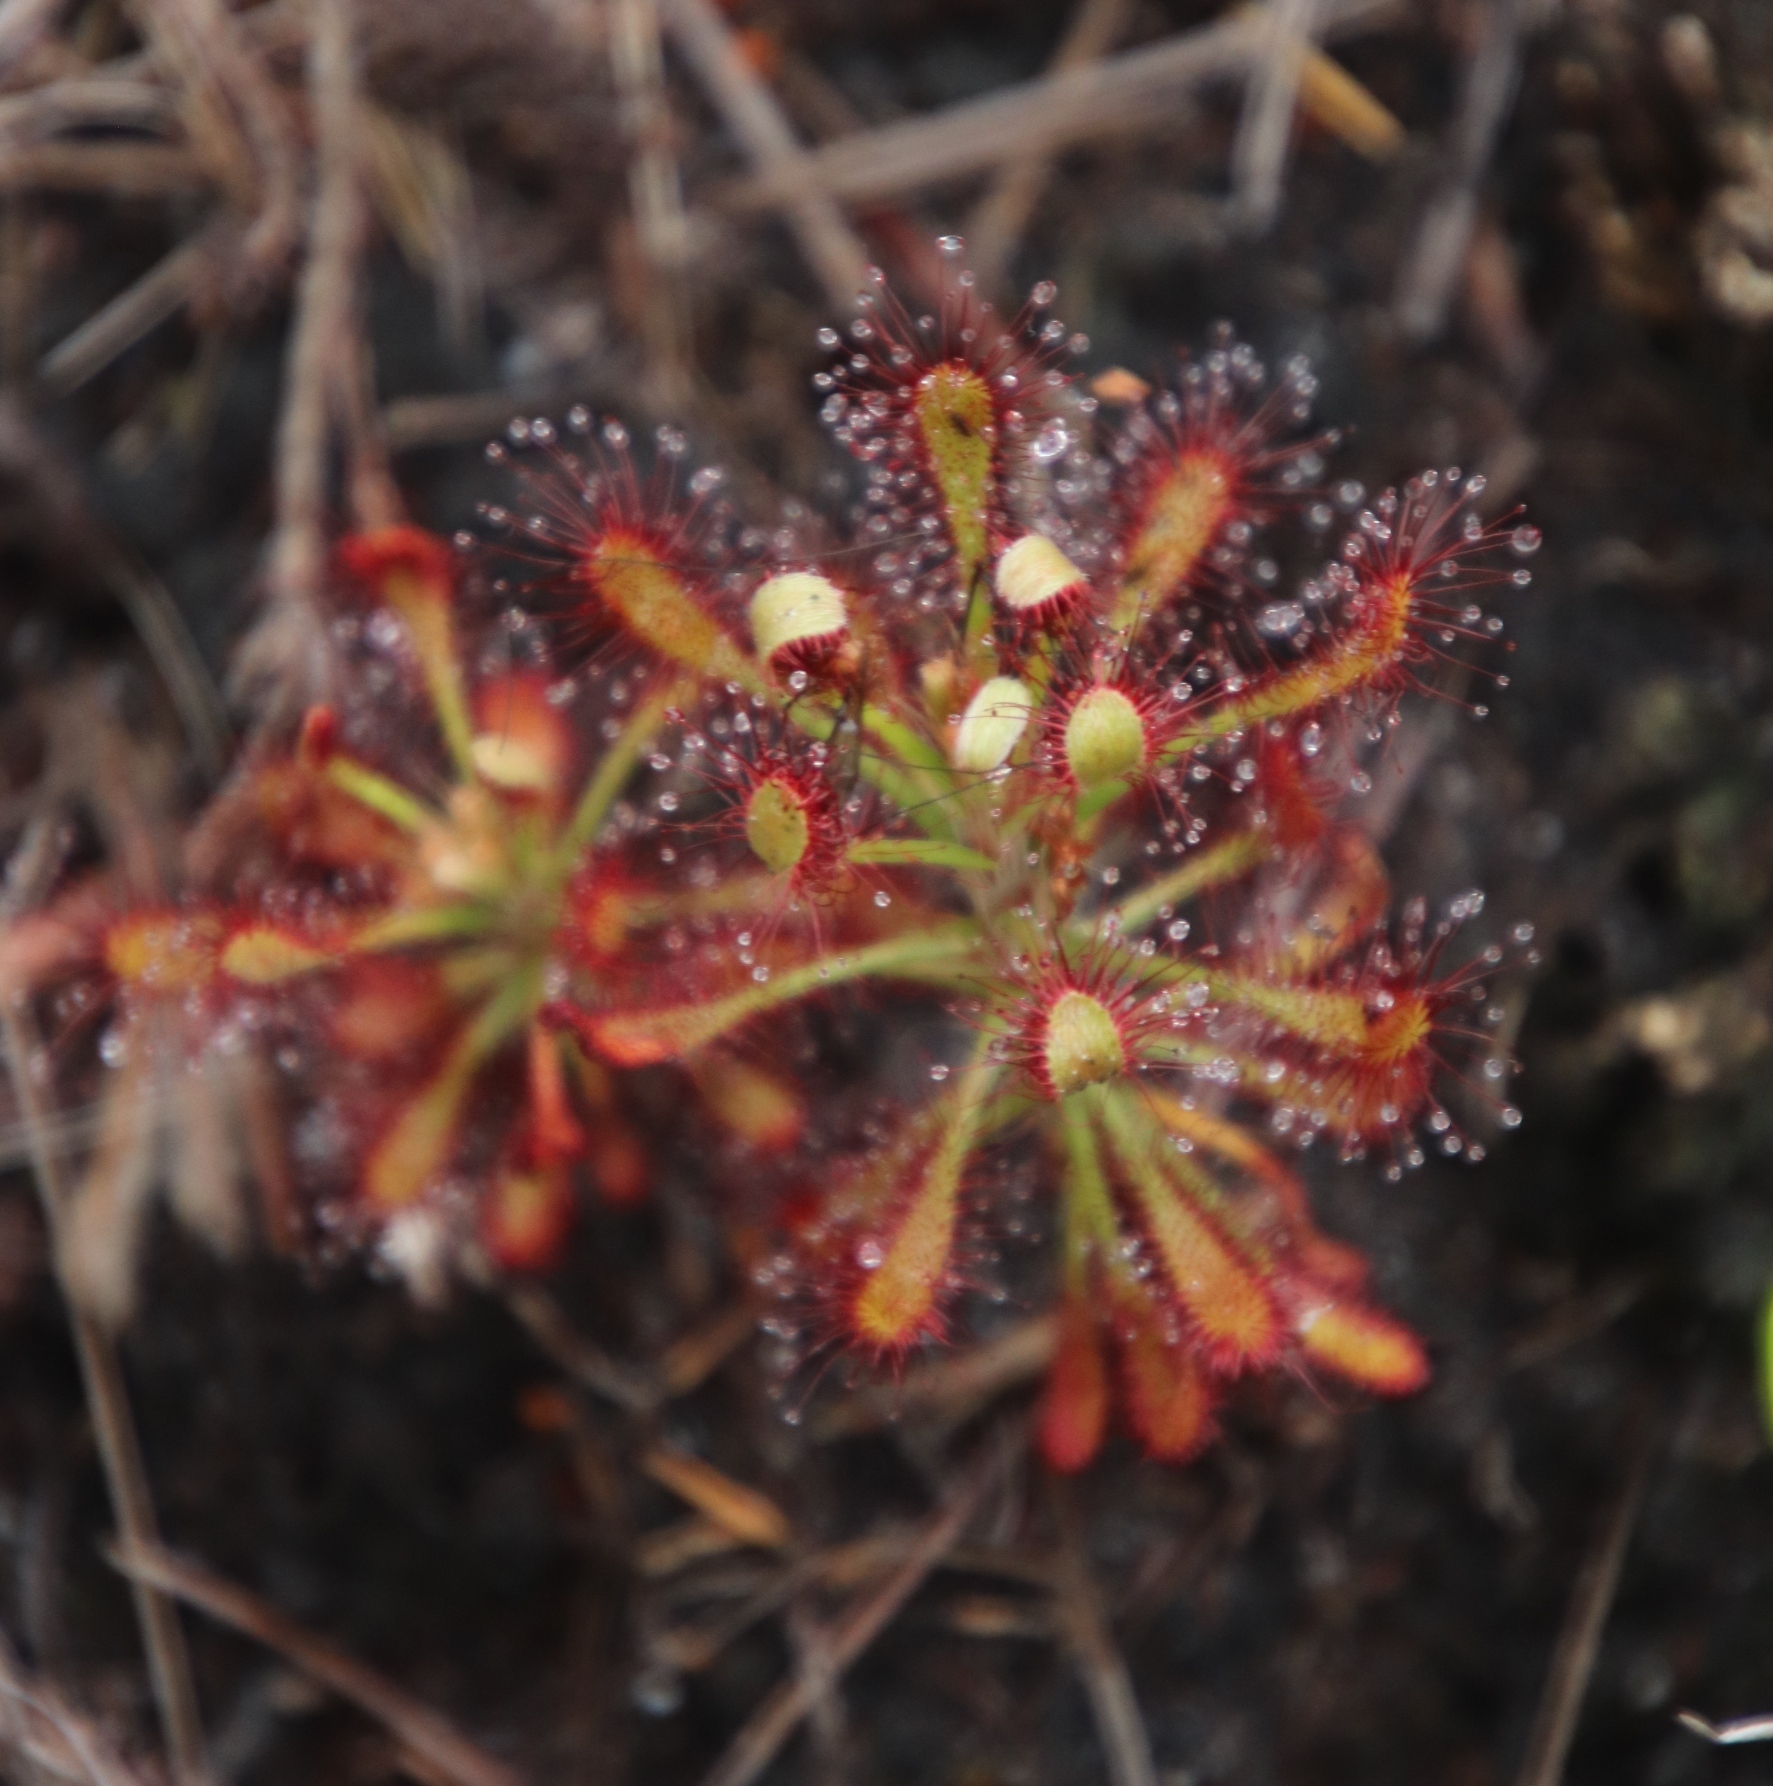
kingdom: Plantae
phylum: Tracheophyta
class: Magnoliopsida
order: Caryophyllales
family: Droseraceae
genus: Drosera
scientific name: Drosera glabripes
